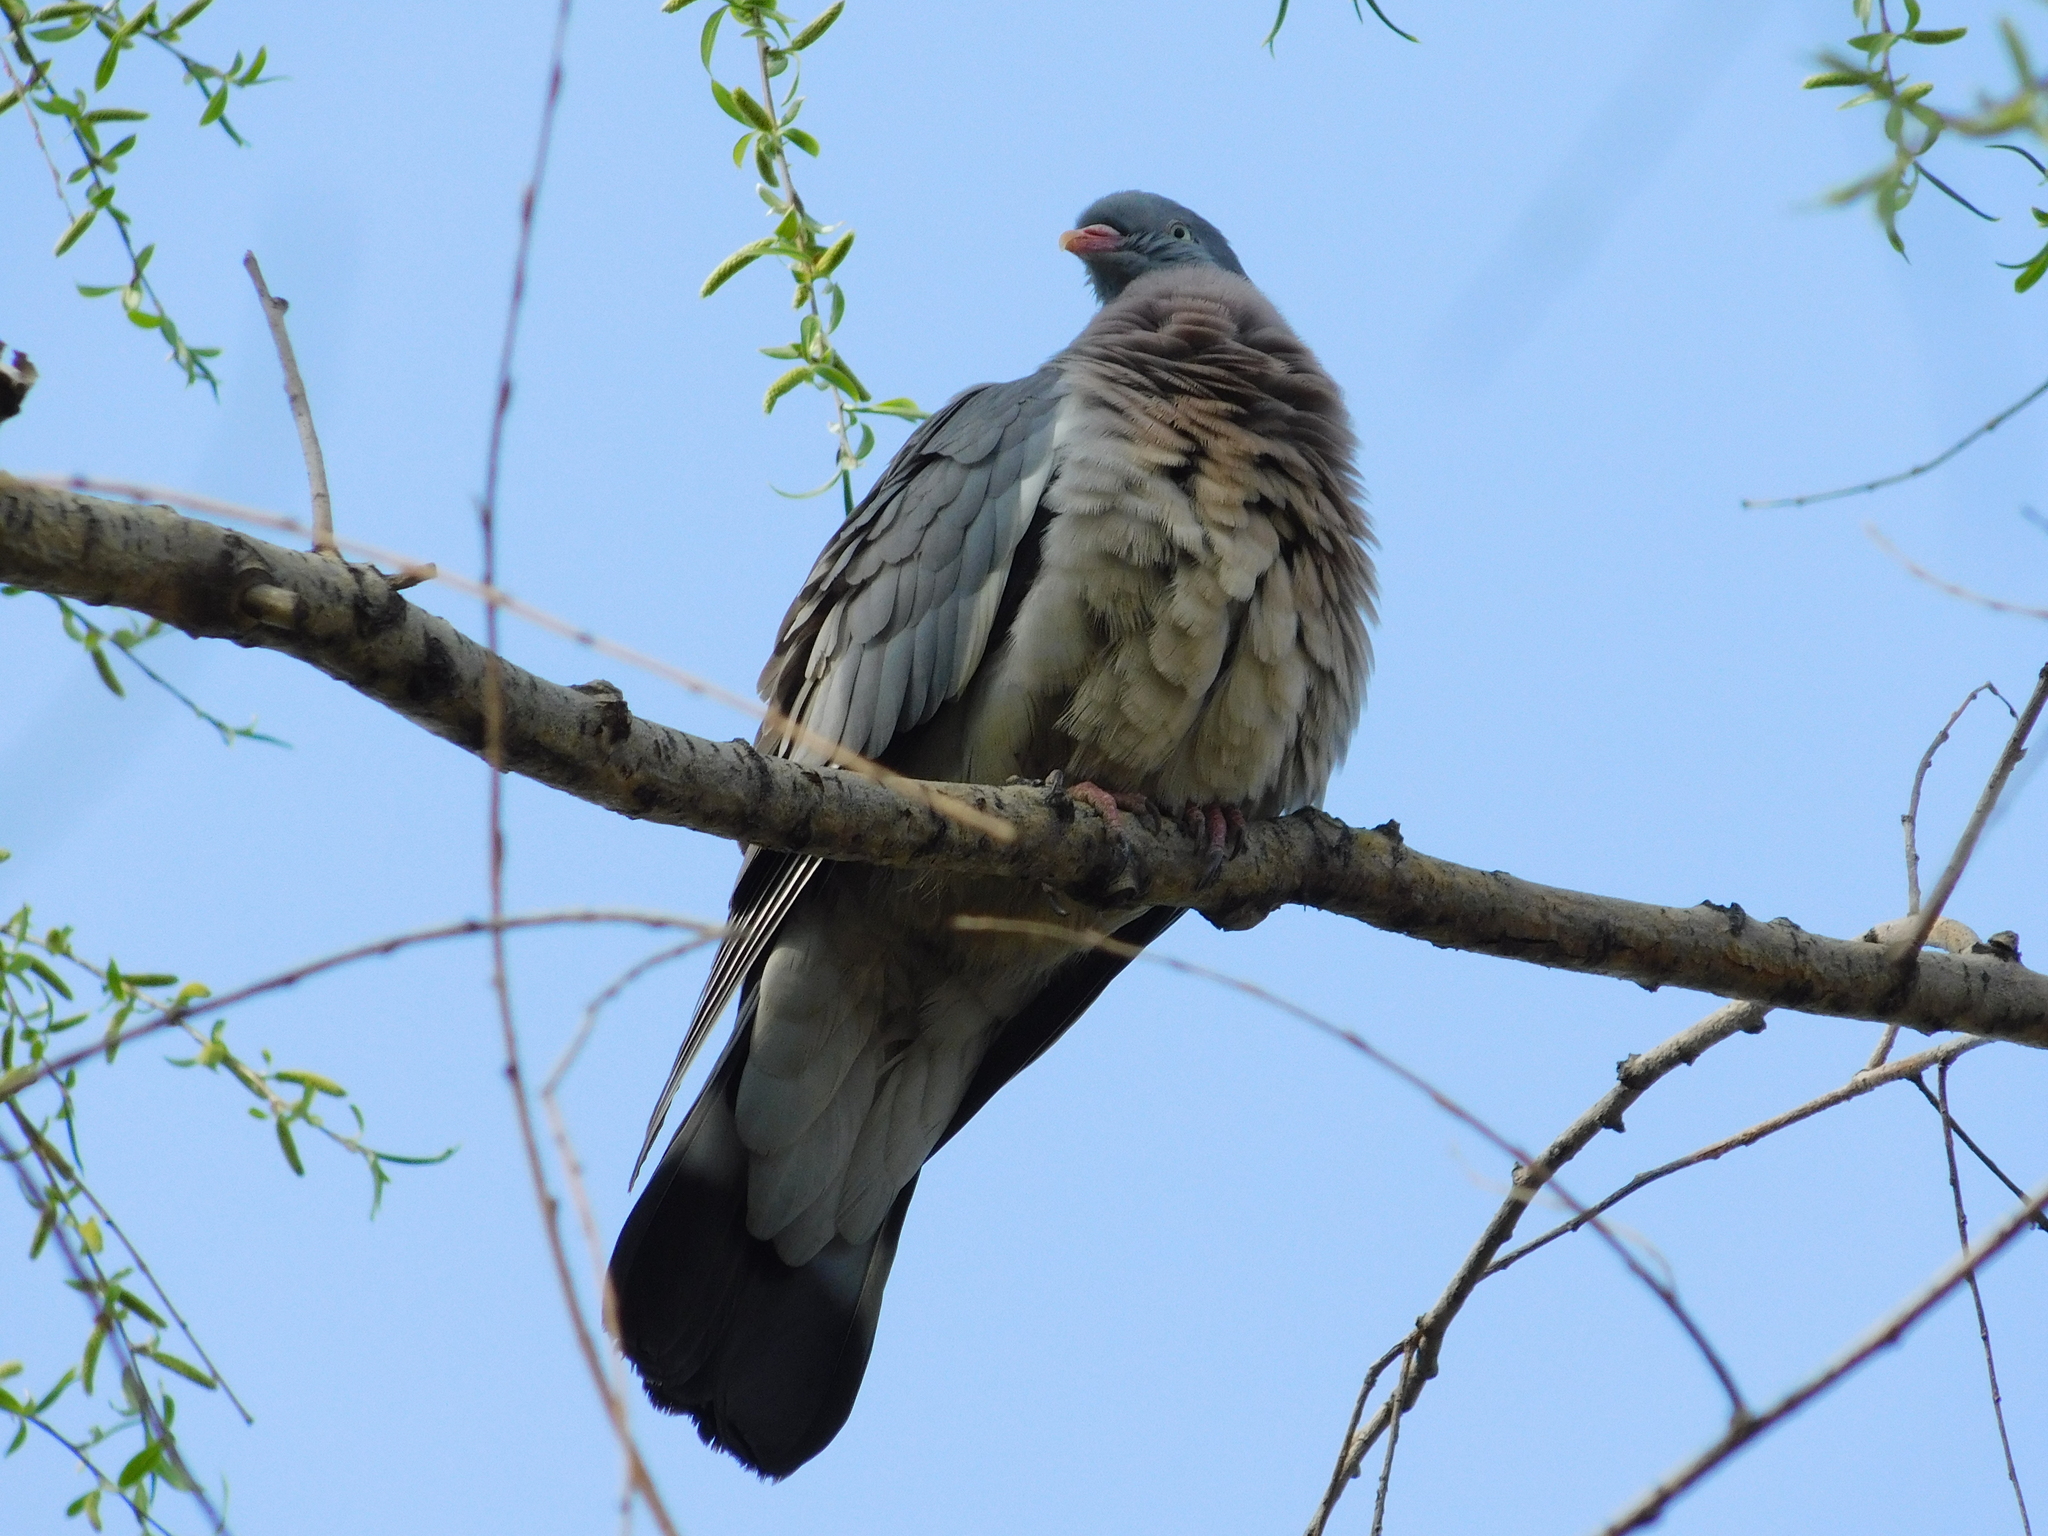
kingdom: Animalia
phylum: Chordata
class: Aves
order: Columbiformes
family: Columbidae
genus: Columba
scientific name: Columba palumbus
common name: Common wood pigeon
